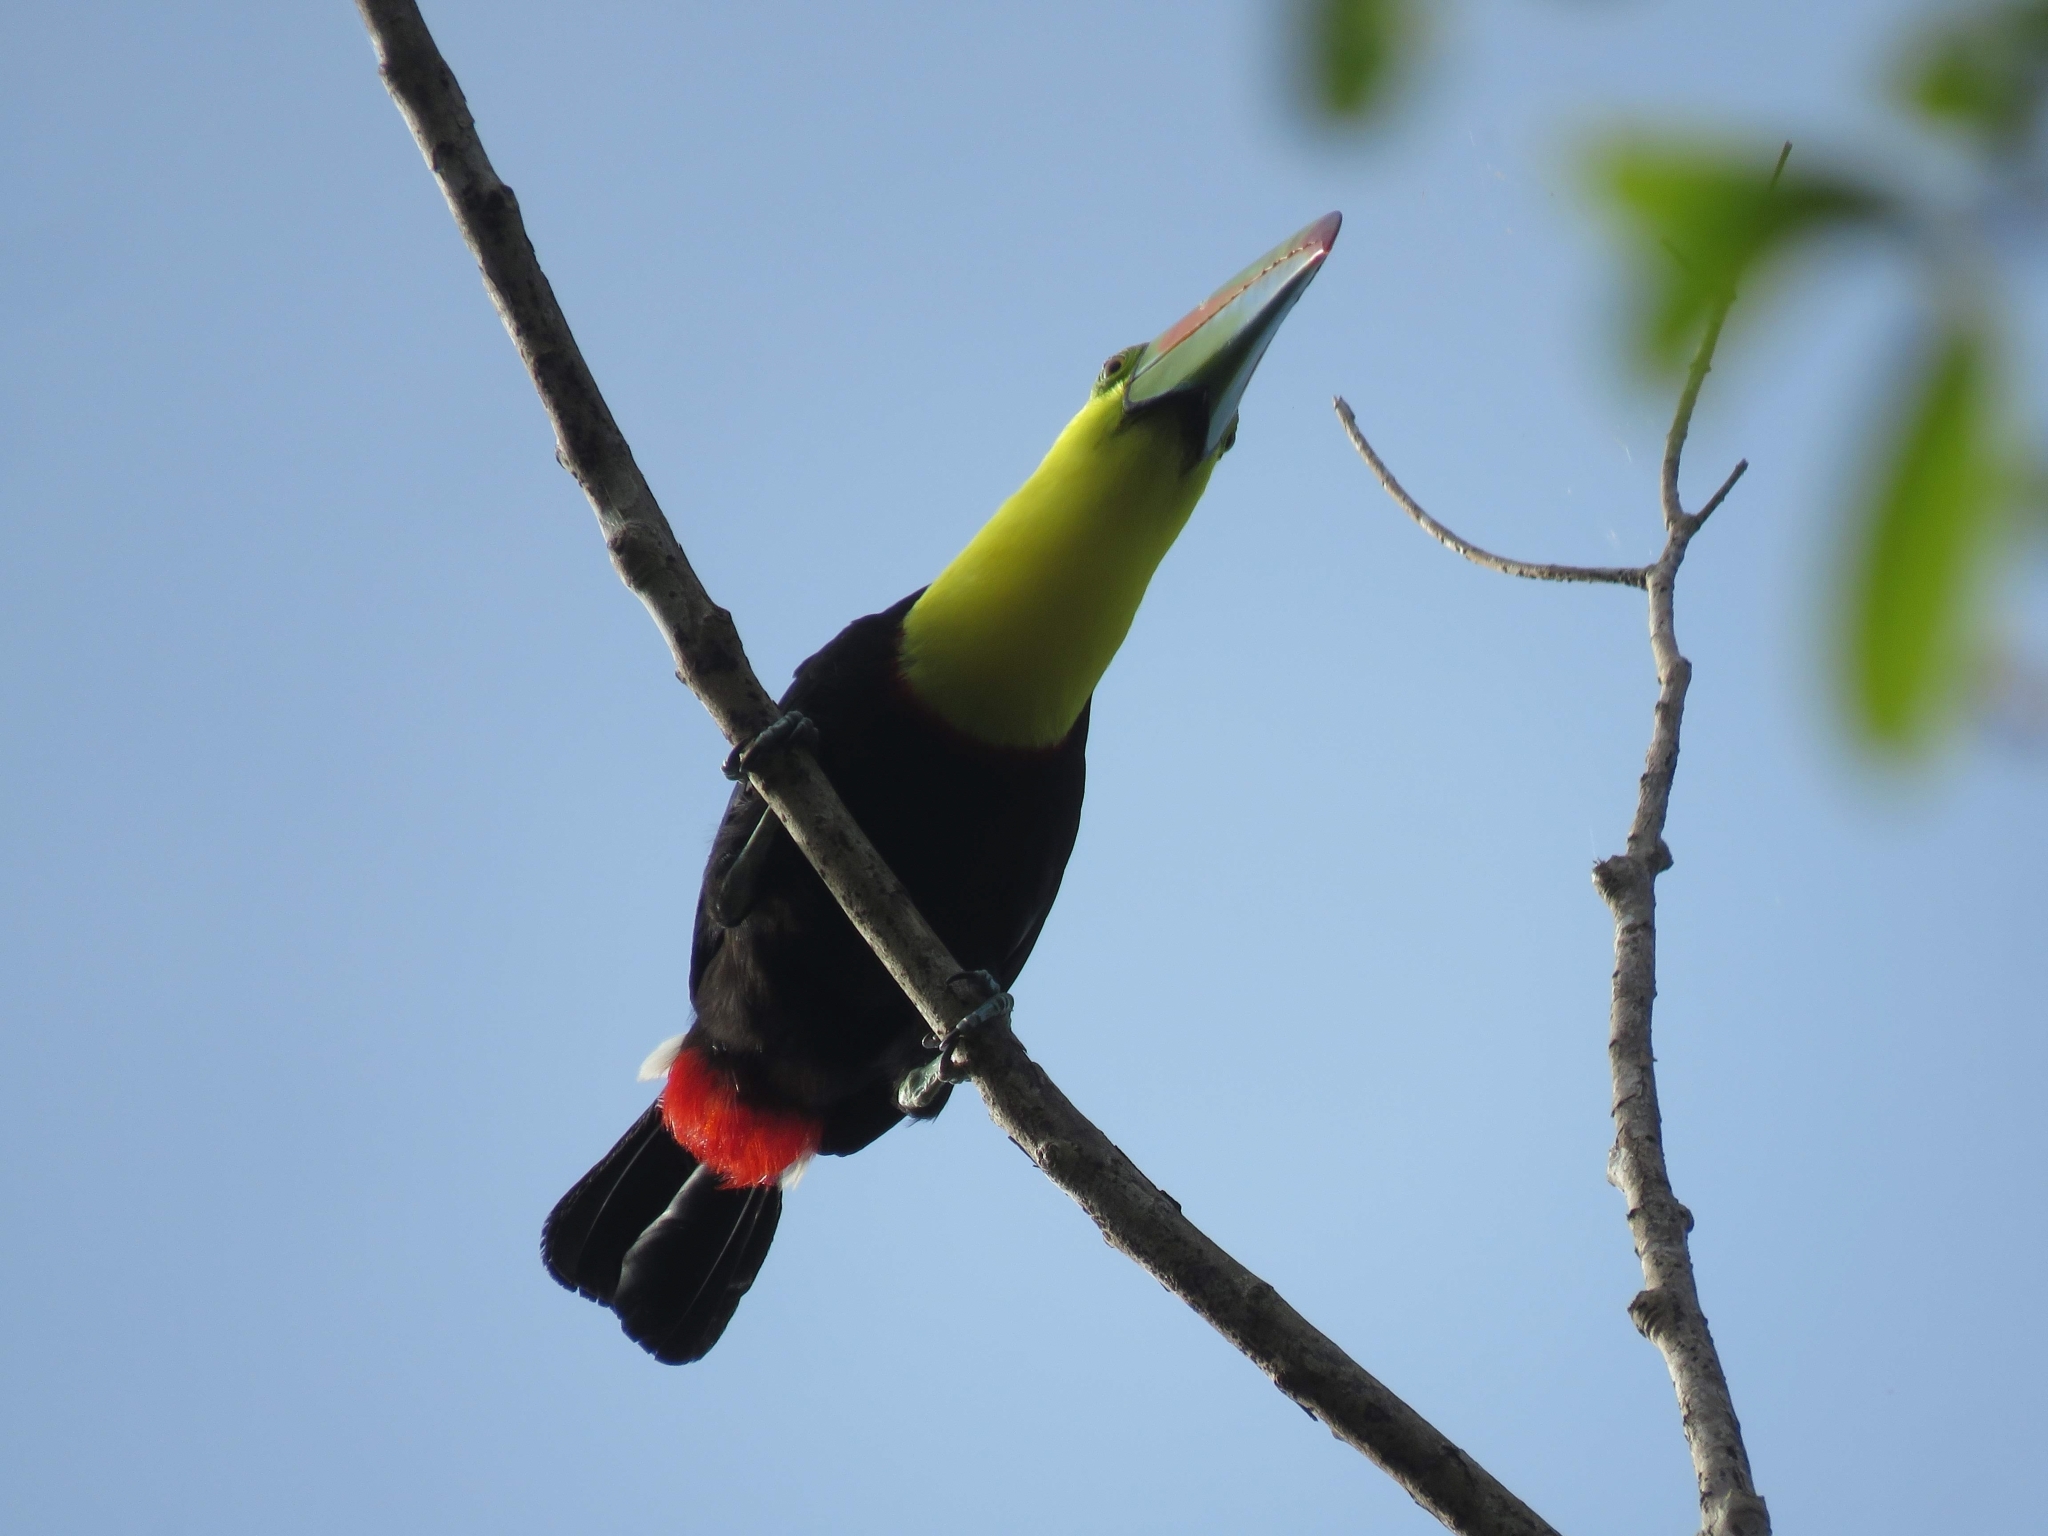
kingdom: Animalia
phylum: Chordata
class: Aves
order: Piciformes
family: Ramphastidae
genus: Ramphastos
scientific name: Ramphastos sulfuratus
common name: Keel-billed toucan
